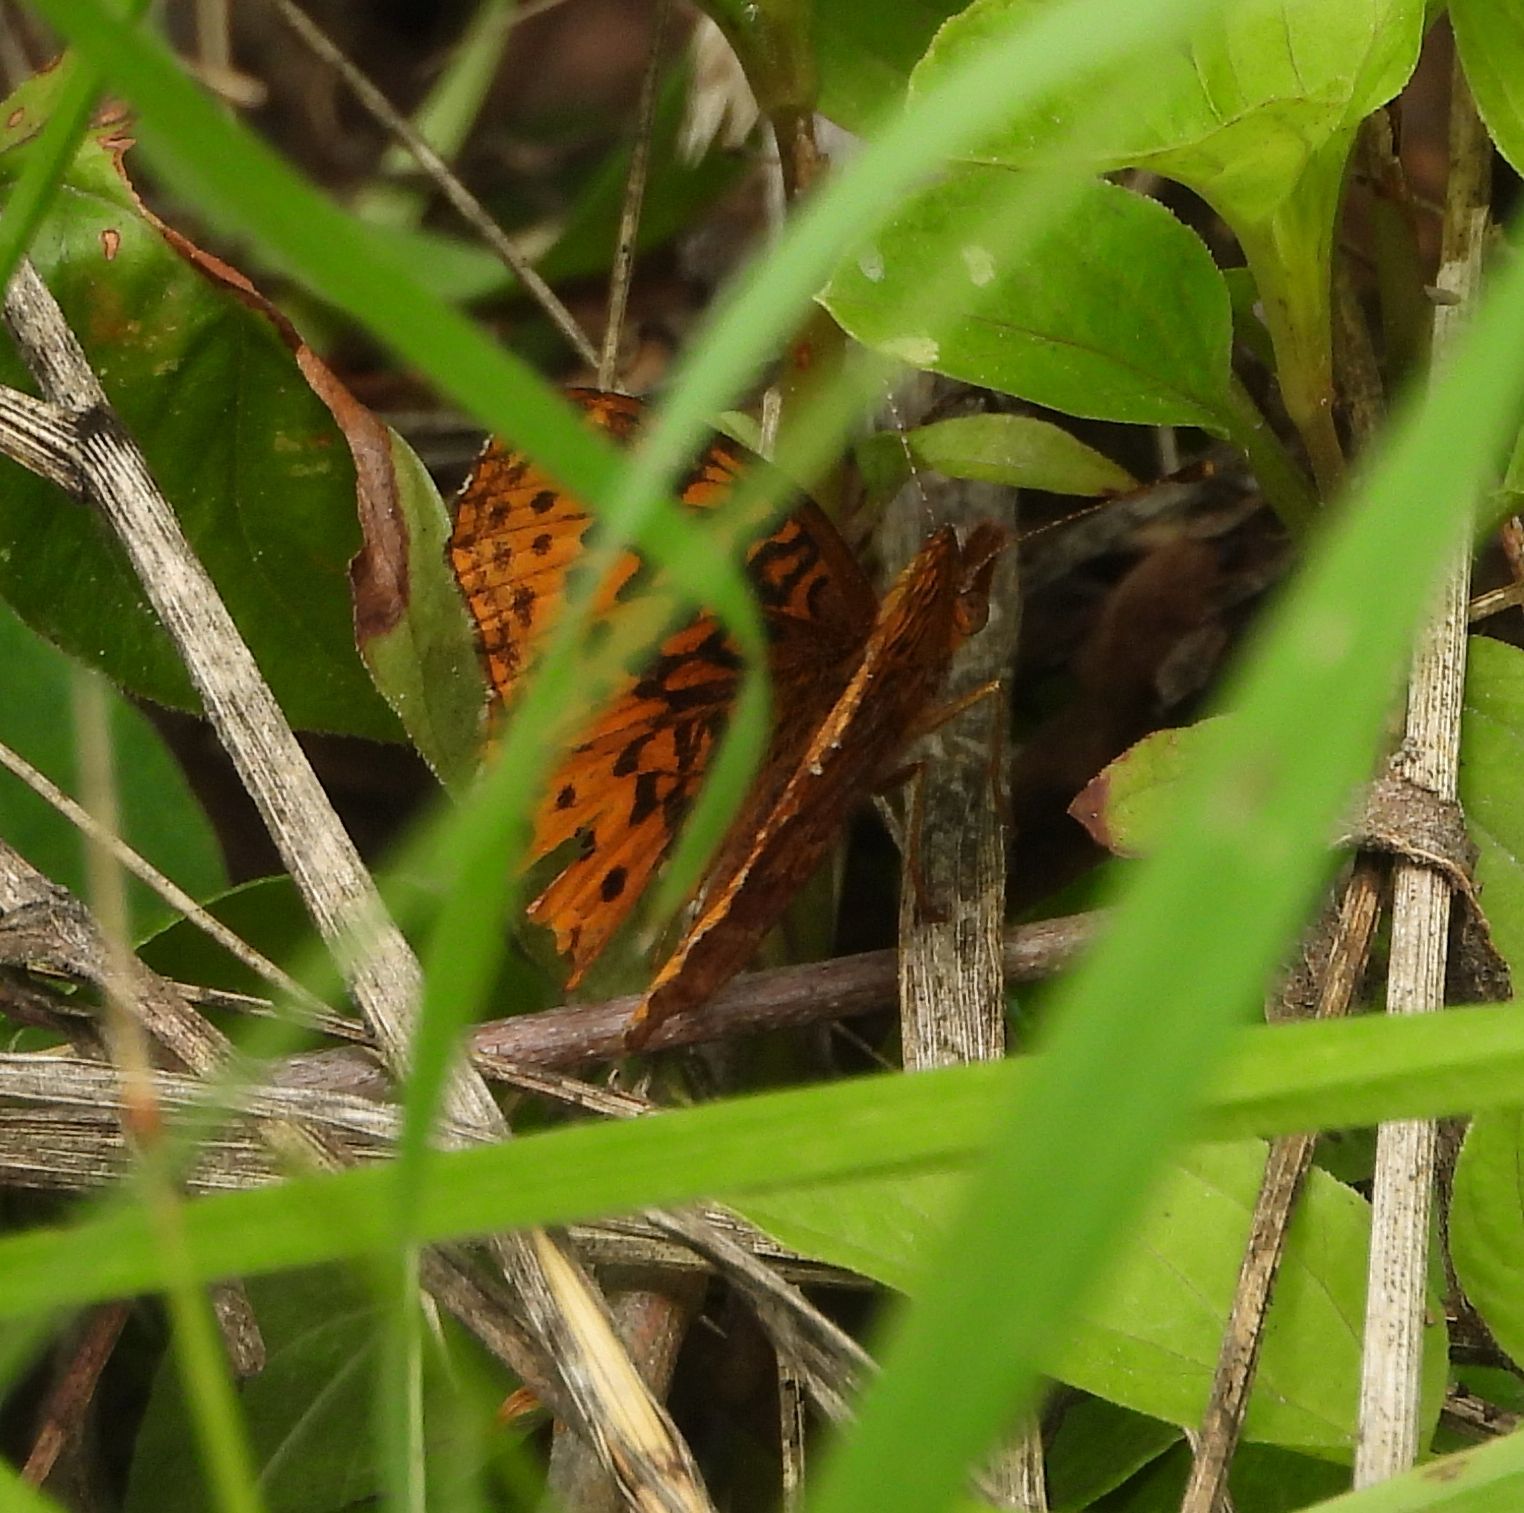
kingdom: Animalia
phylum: Arthropoda
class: Insecta
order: Lepidoptera
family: Nymphalidae
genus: Clossiana
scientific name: Clossiana toddi
